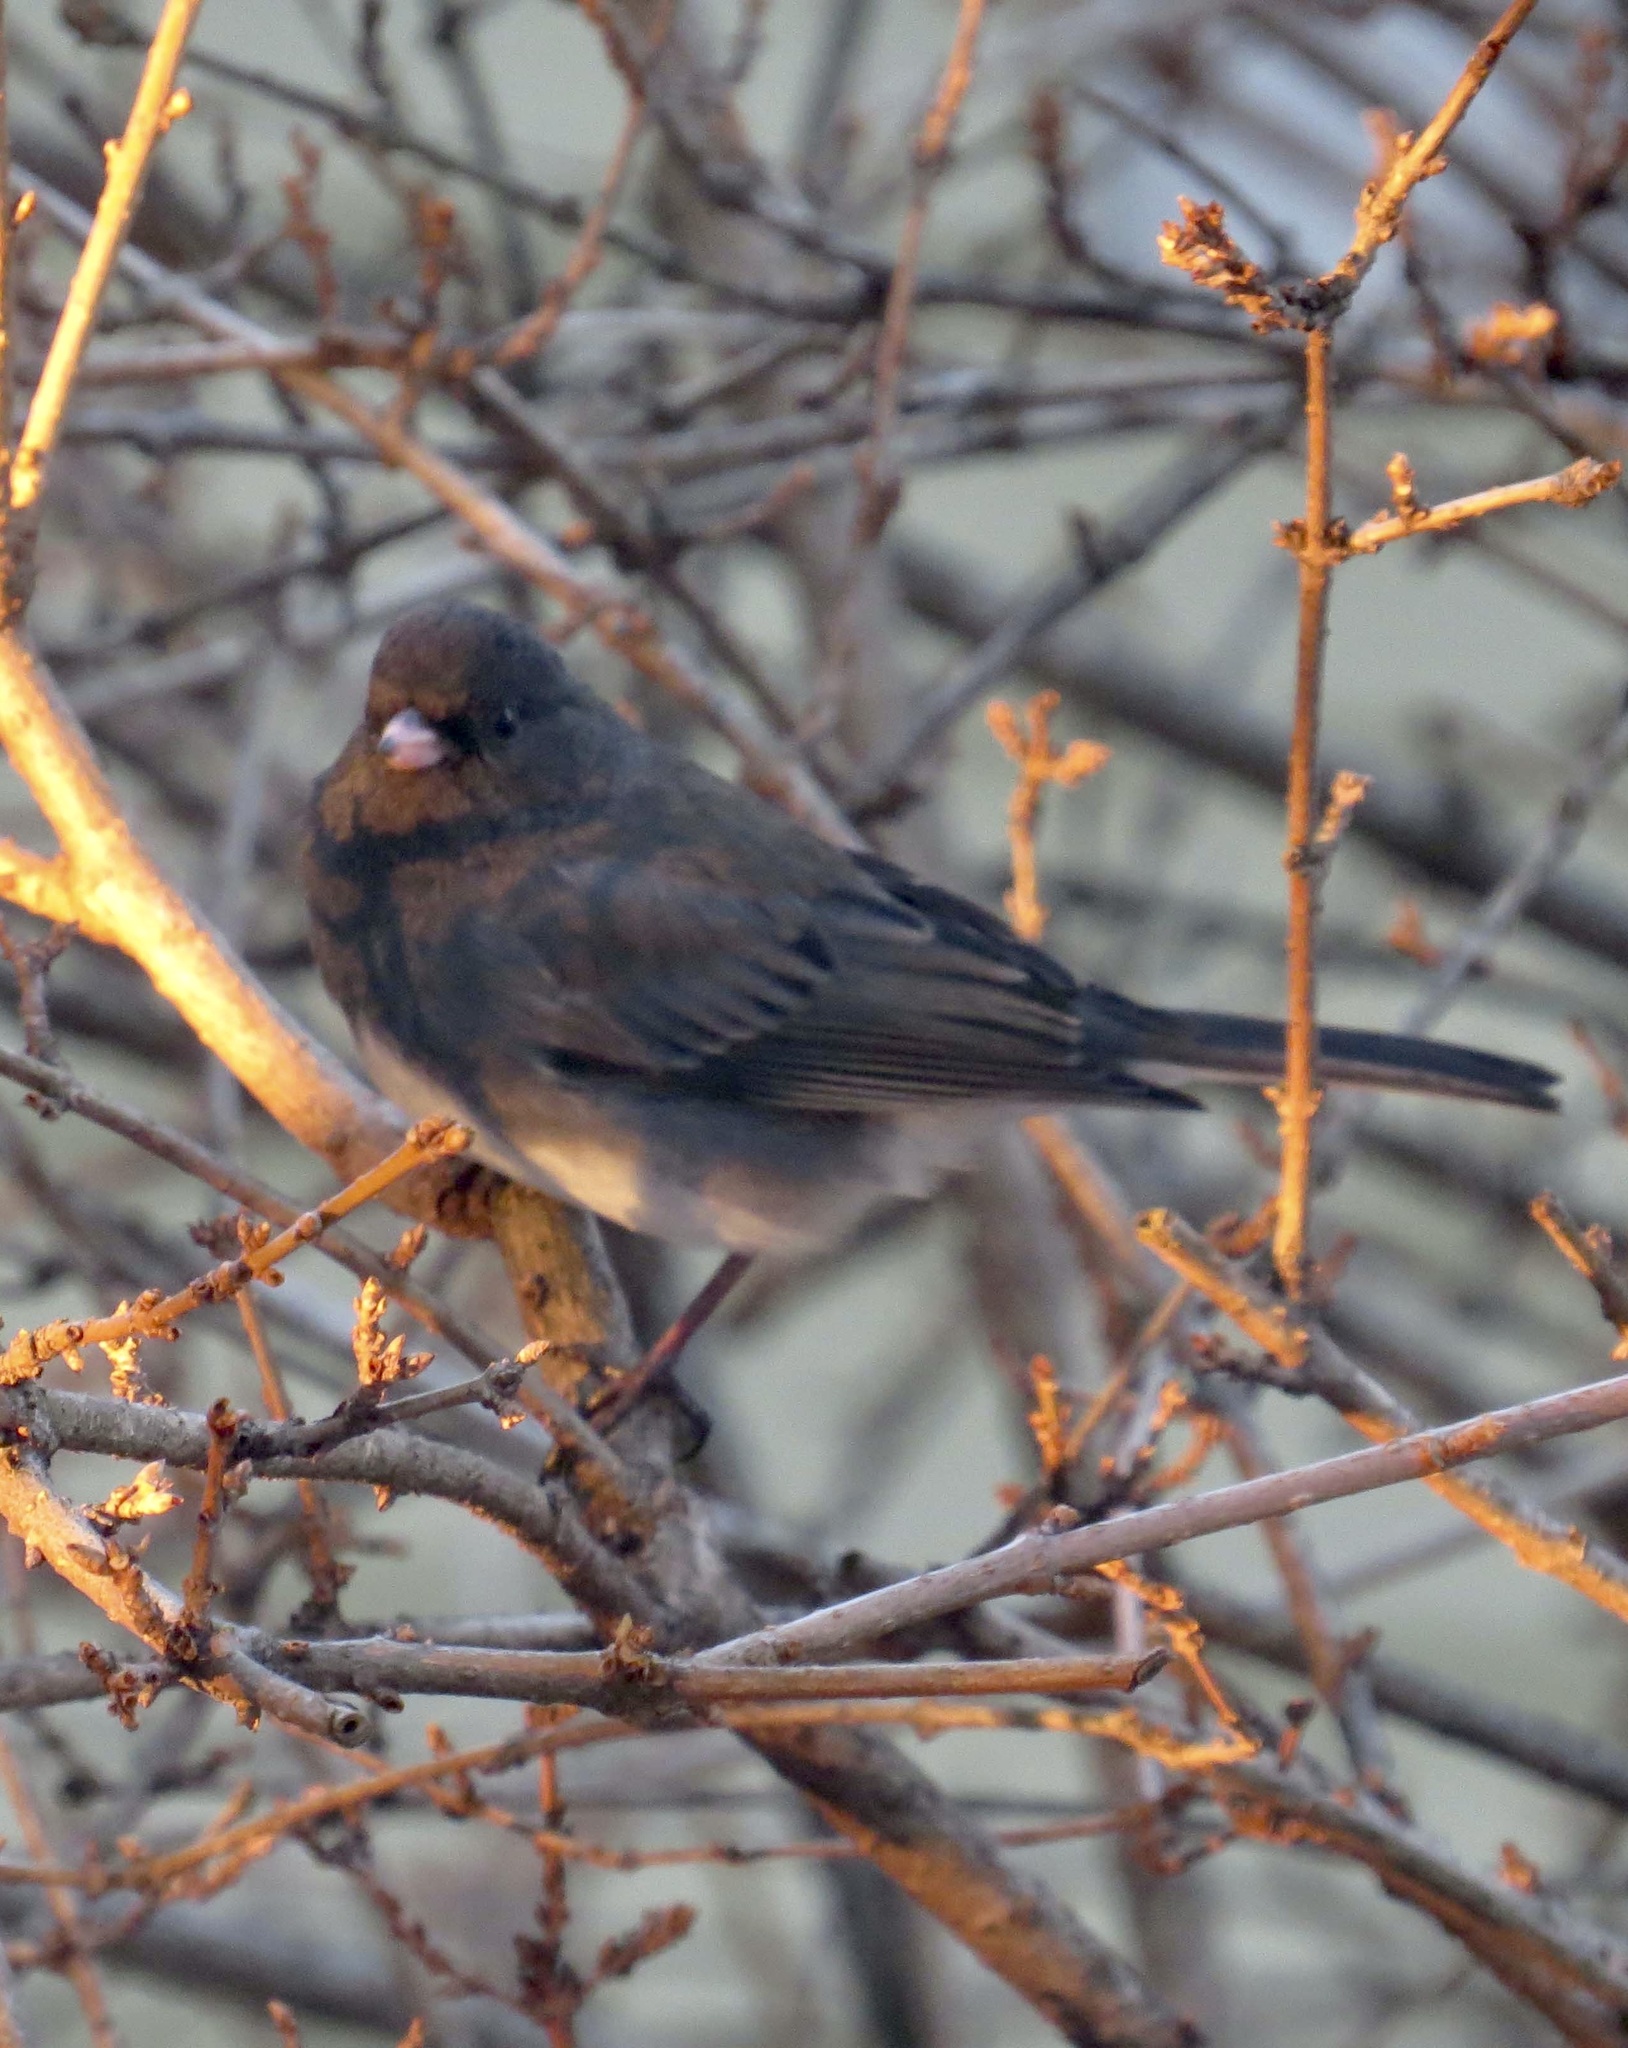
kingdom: Animalia
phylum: Chordata
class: Aves
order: Passeriformes
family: Passerellidae
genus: Junco
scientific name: Junco hyemalis
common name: Dark-eyed junco
